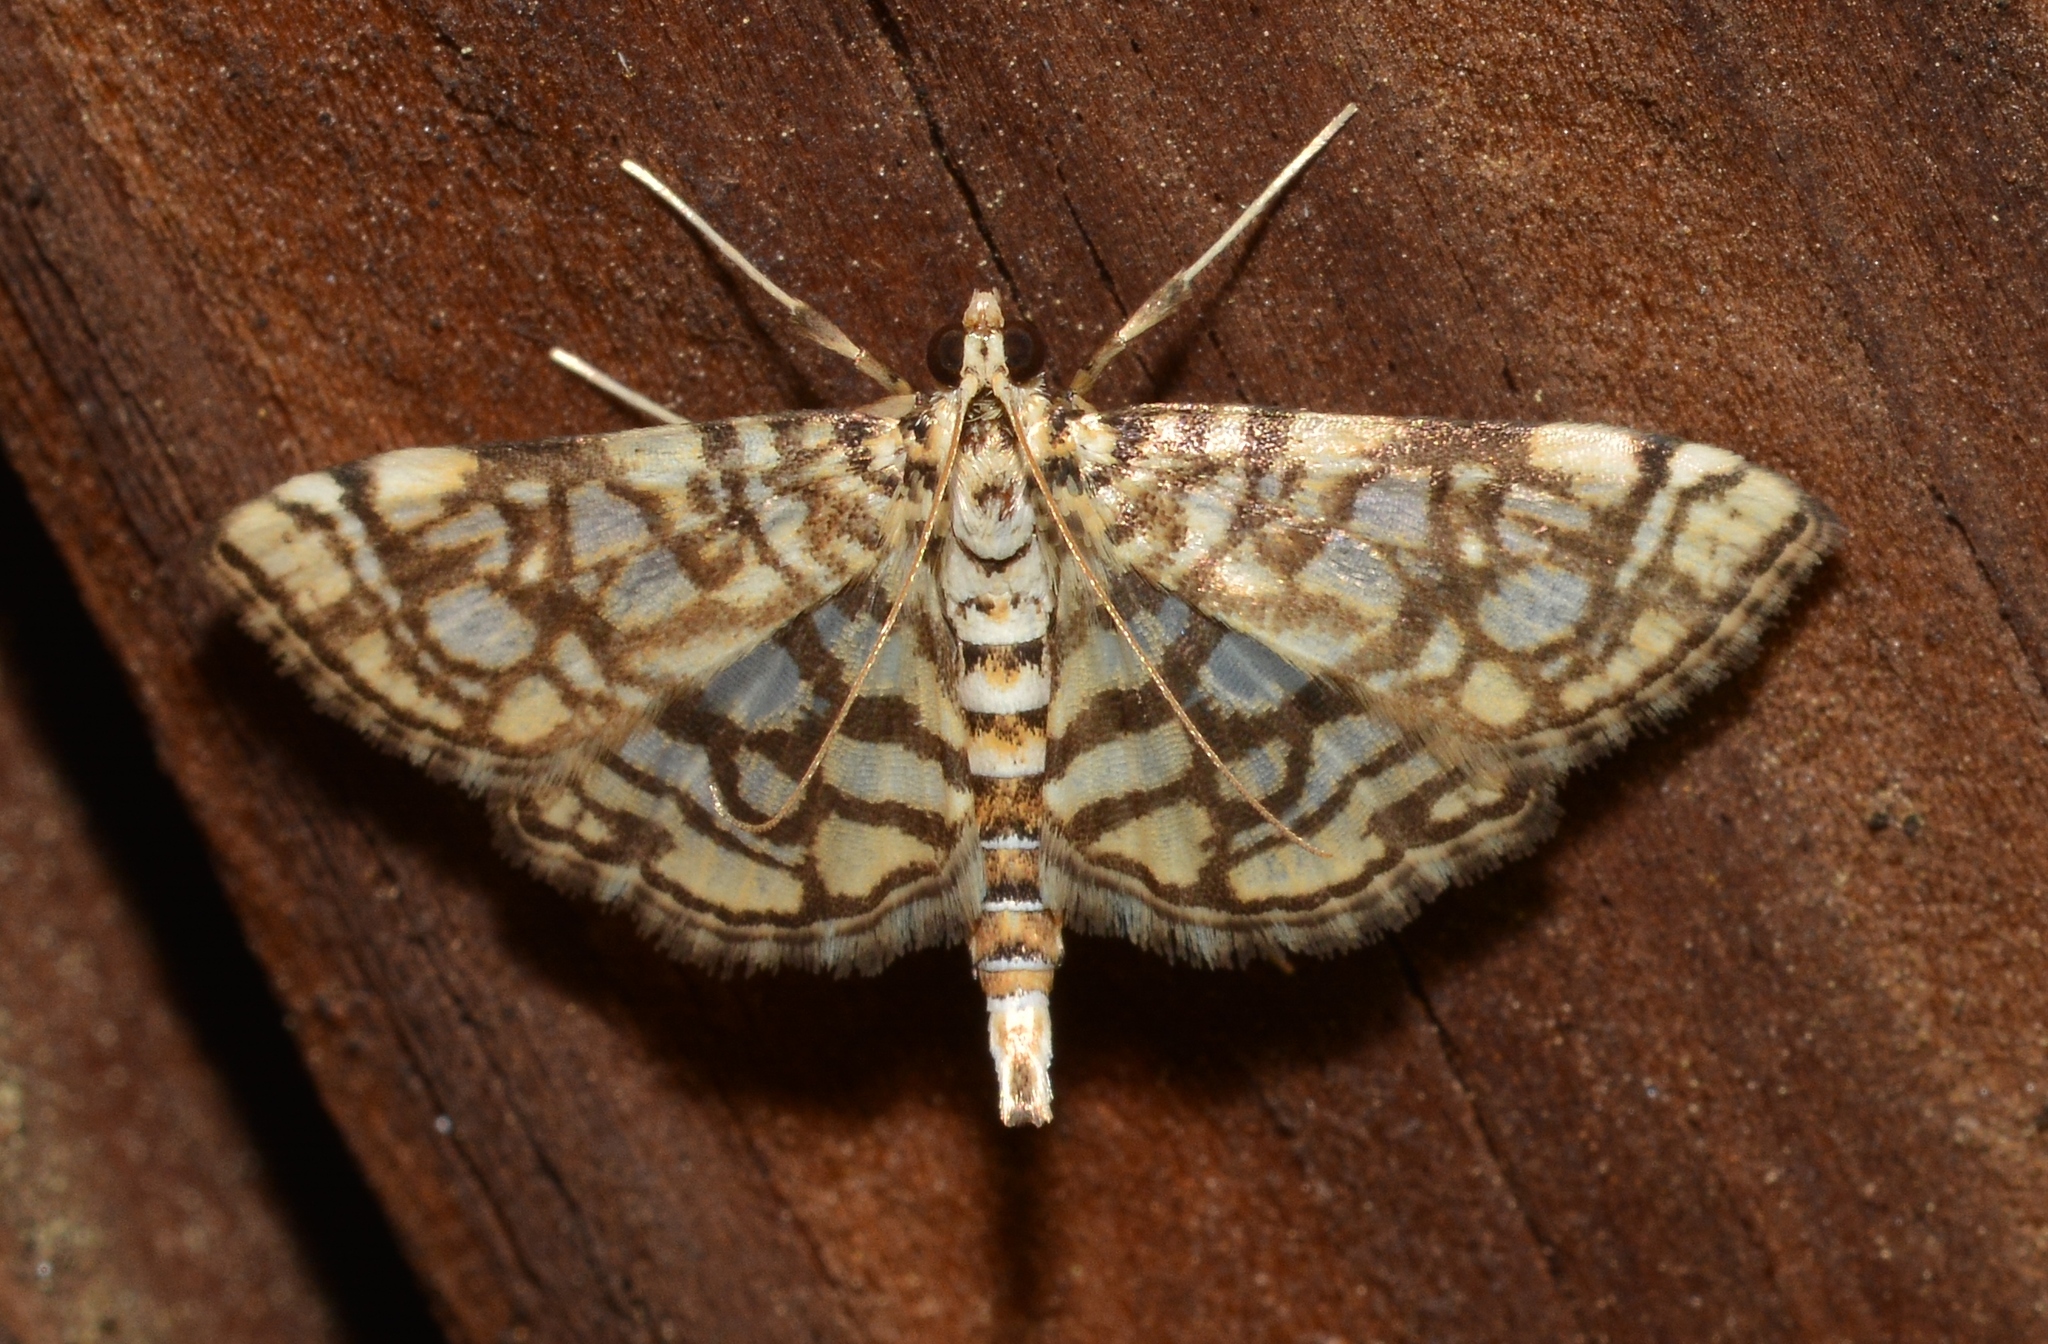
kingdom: Animalia
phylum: Arthropoda
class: Insecta
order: Lepidoptera
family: Crambidae
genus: Lygropia
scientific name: Lygropia rivulalis
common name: Bog lygropia moth
